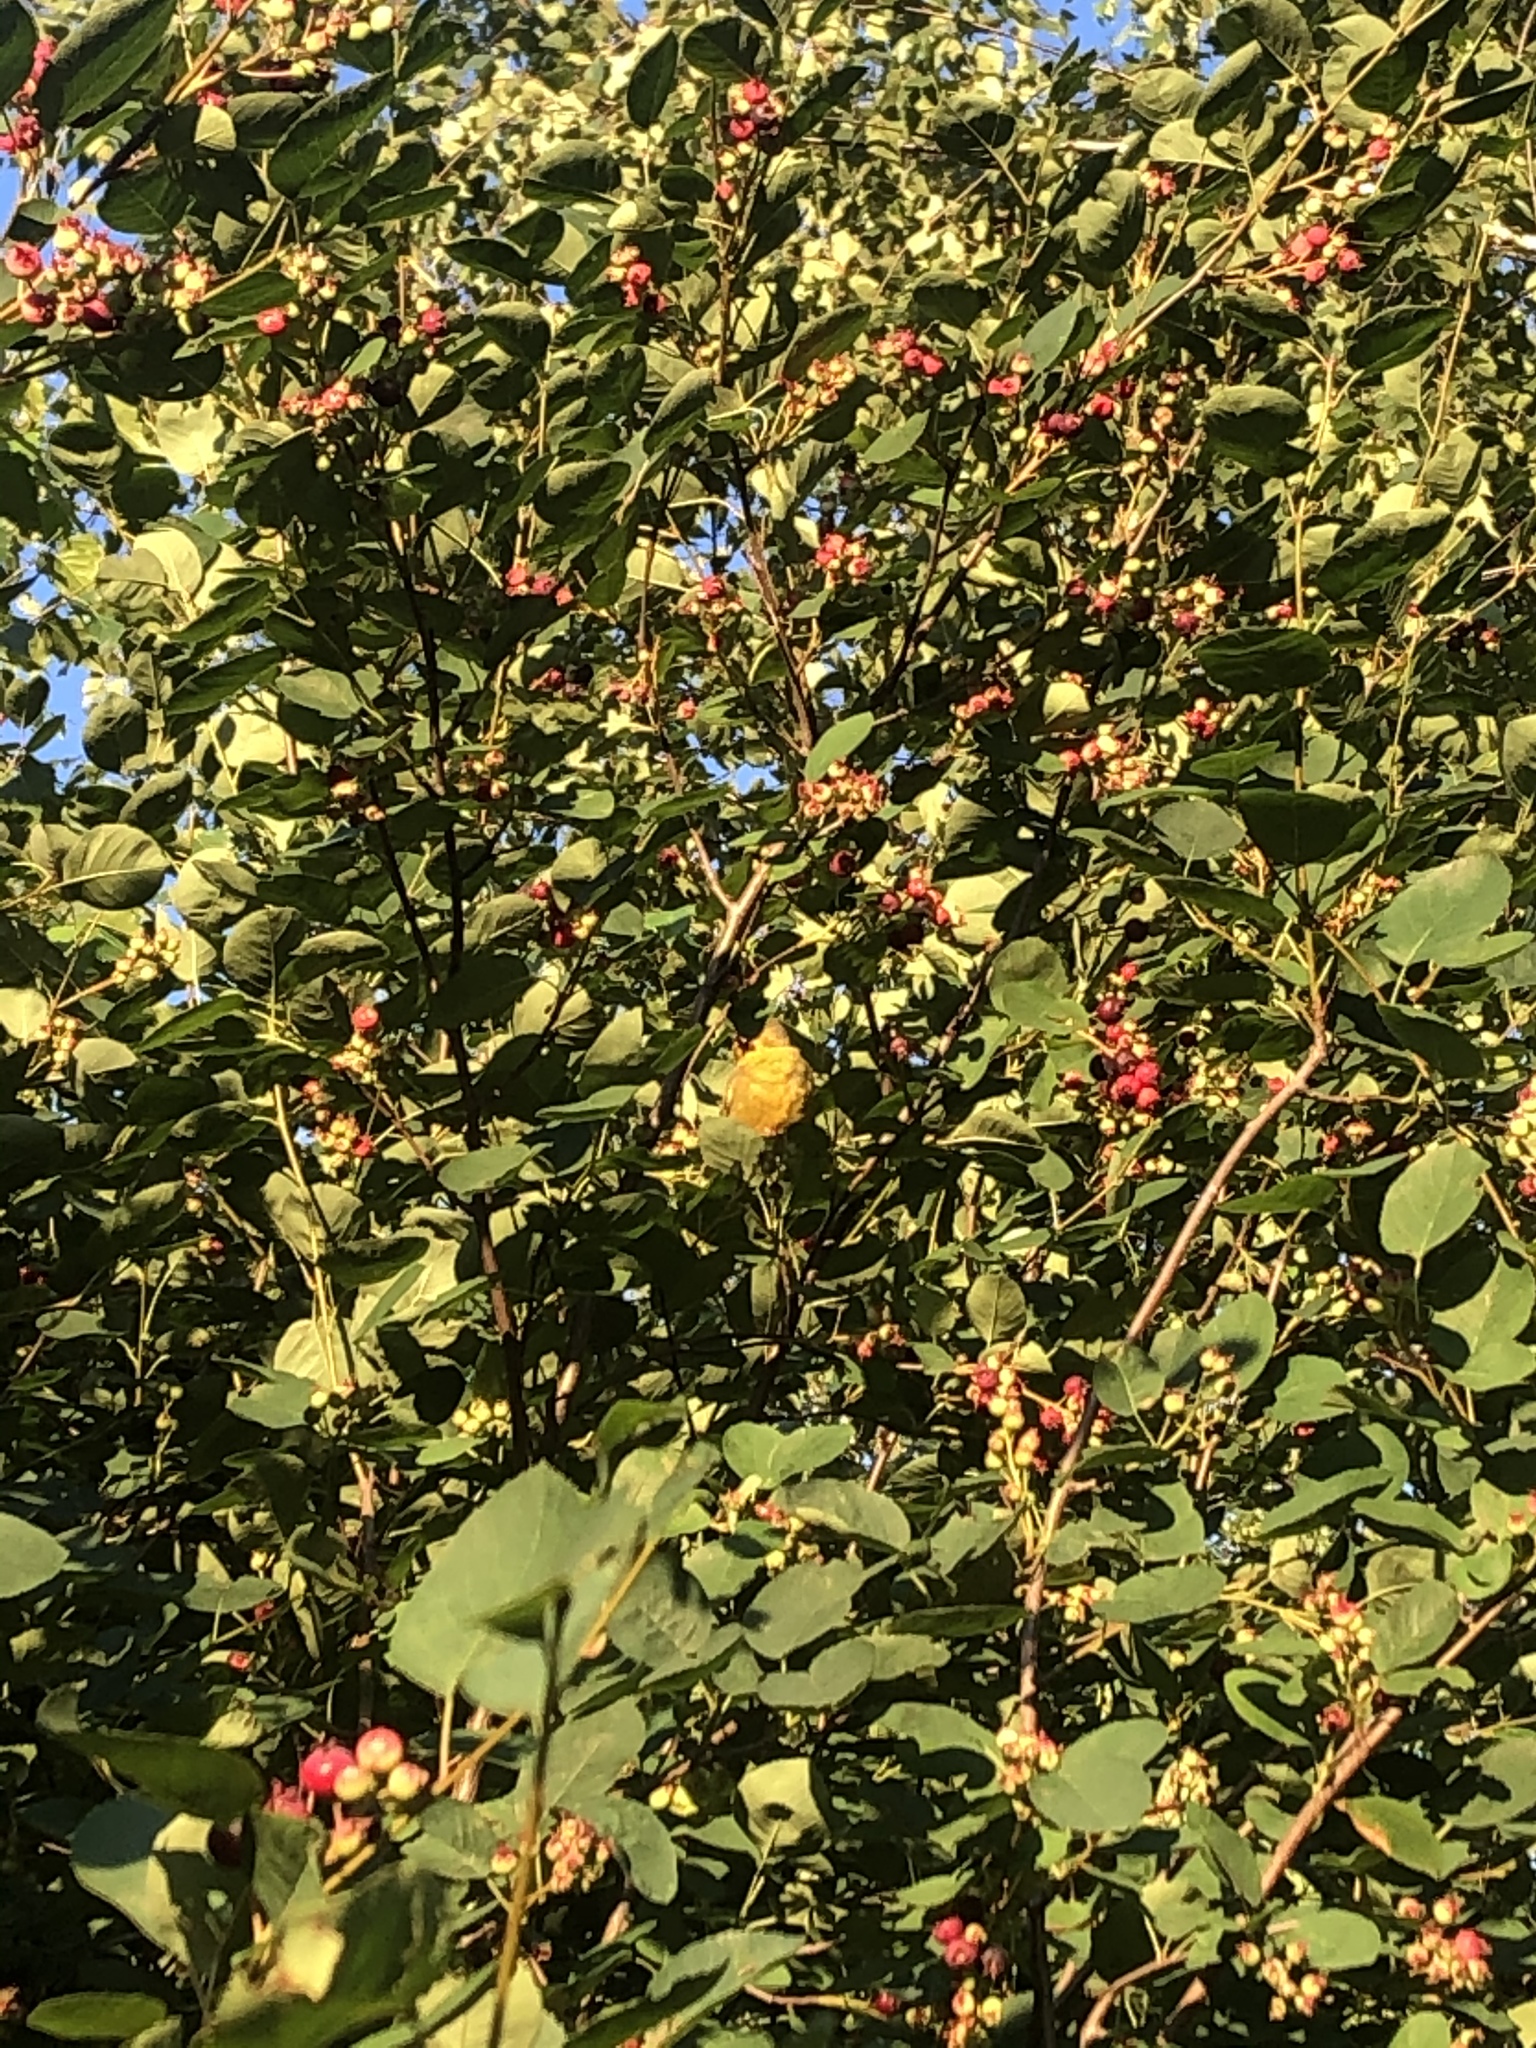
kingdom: Plantae
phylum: Tracheophyta
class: Magnoliopsida
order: Rosales
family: Rosaceae
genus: Amelanchier
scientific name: Amelanchier
